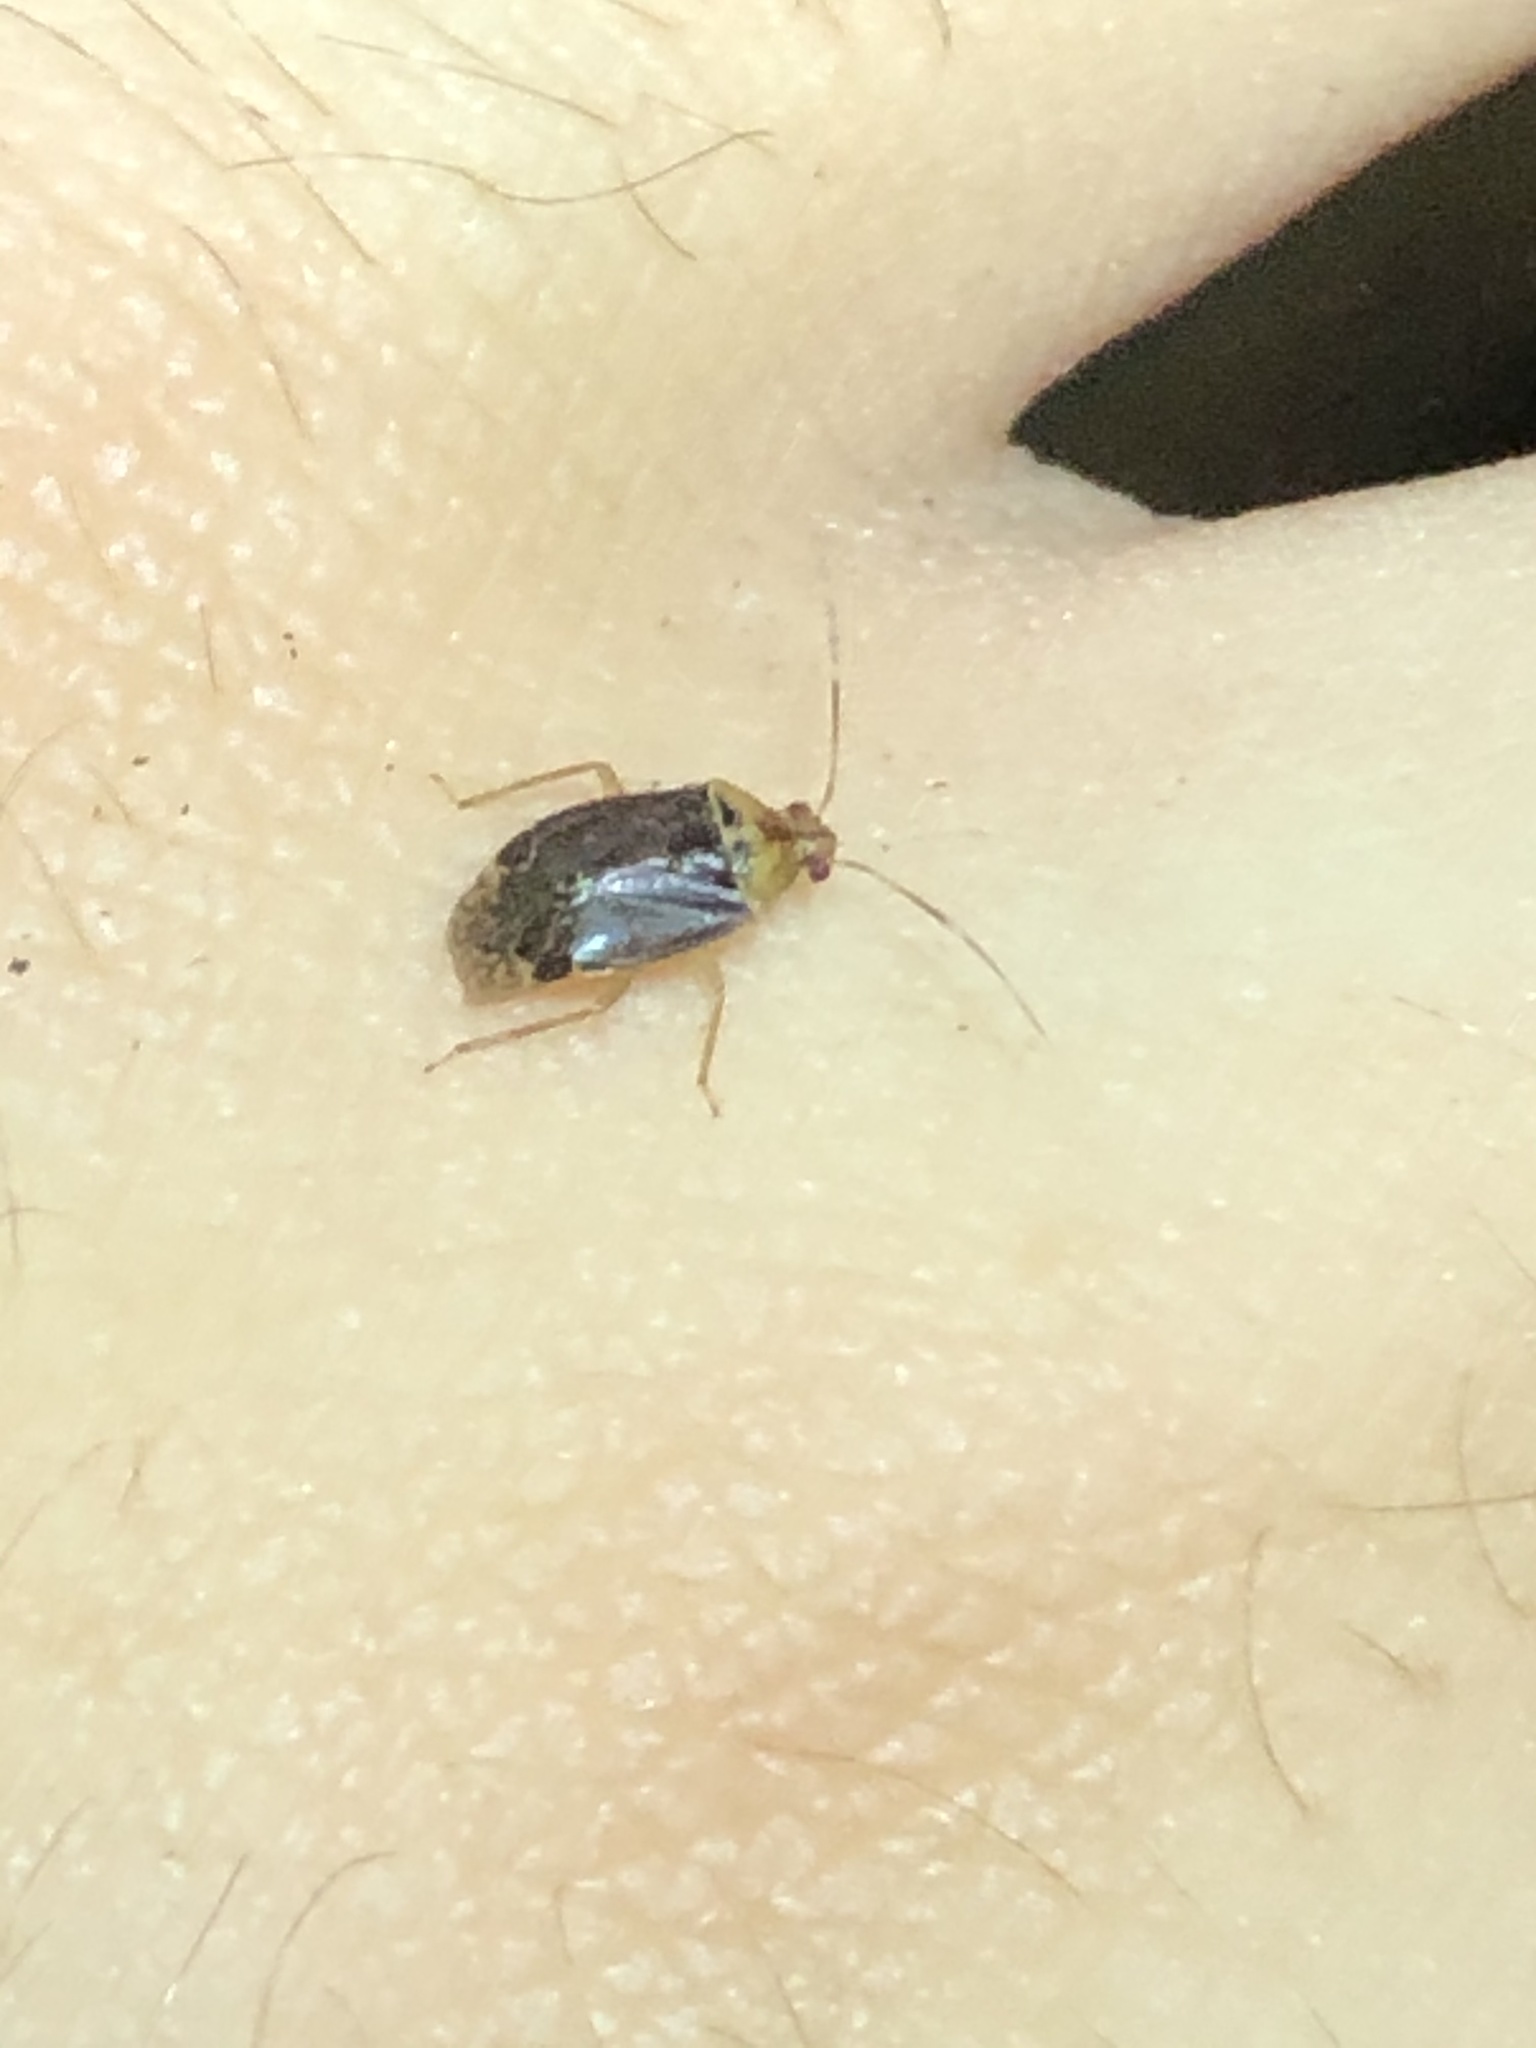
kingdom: Animalia
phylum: Arthropoda
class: Insecta
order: Hemiptera
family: Miridae
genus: Tropidosteptes
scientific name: Tropidosteptes hirsutus
